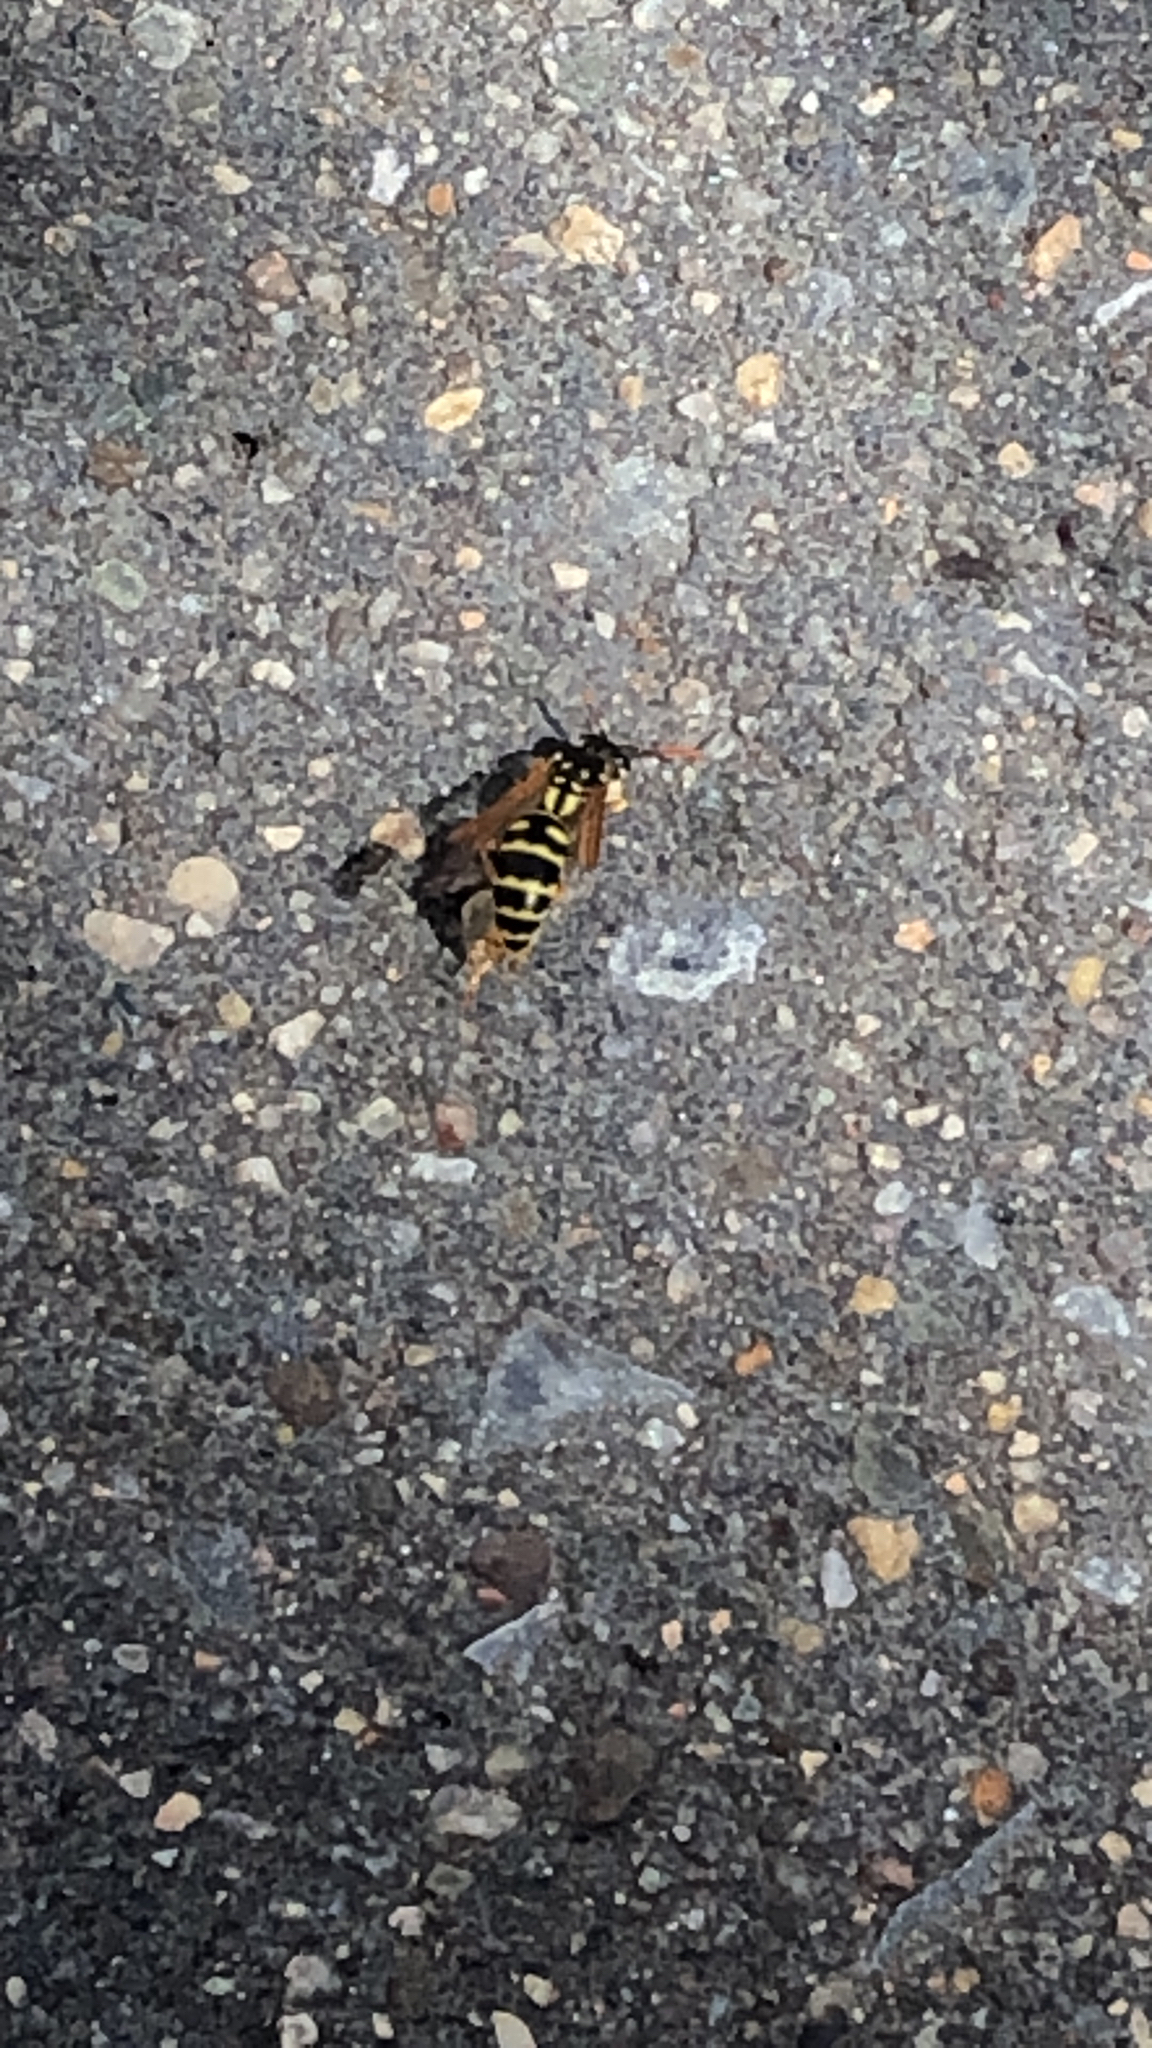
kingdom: Animalia
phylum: Arthropoda
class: Insecta
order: Hymenoptera
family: Eumenidae
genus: Polistes
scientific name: Polistes dominula
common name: Paper wasp
